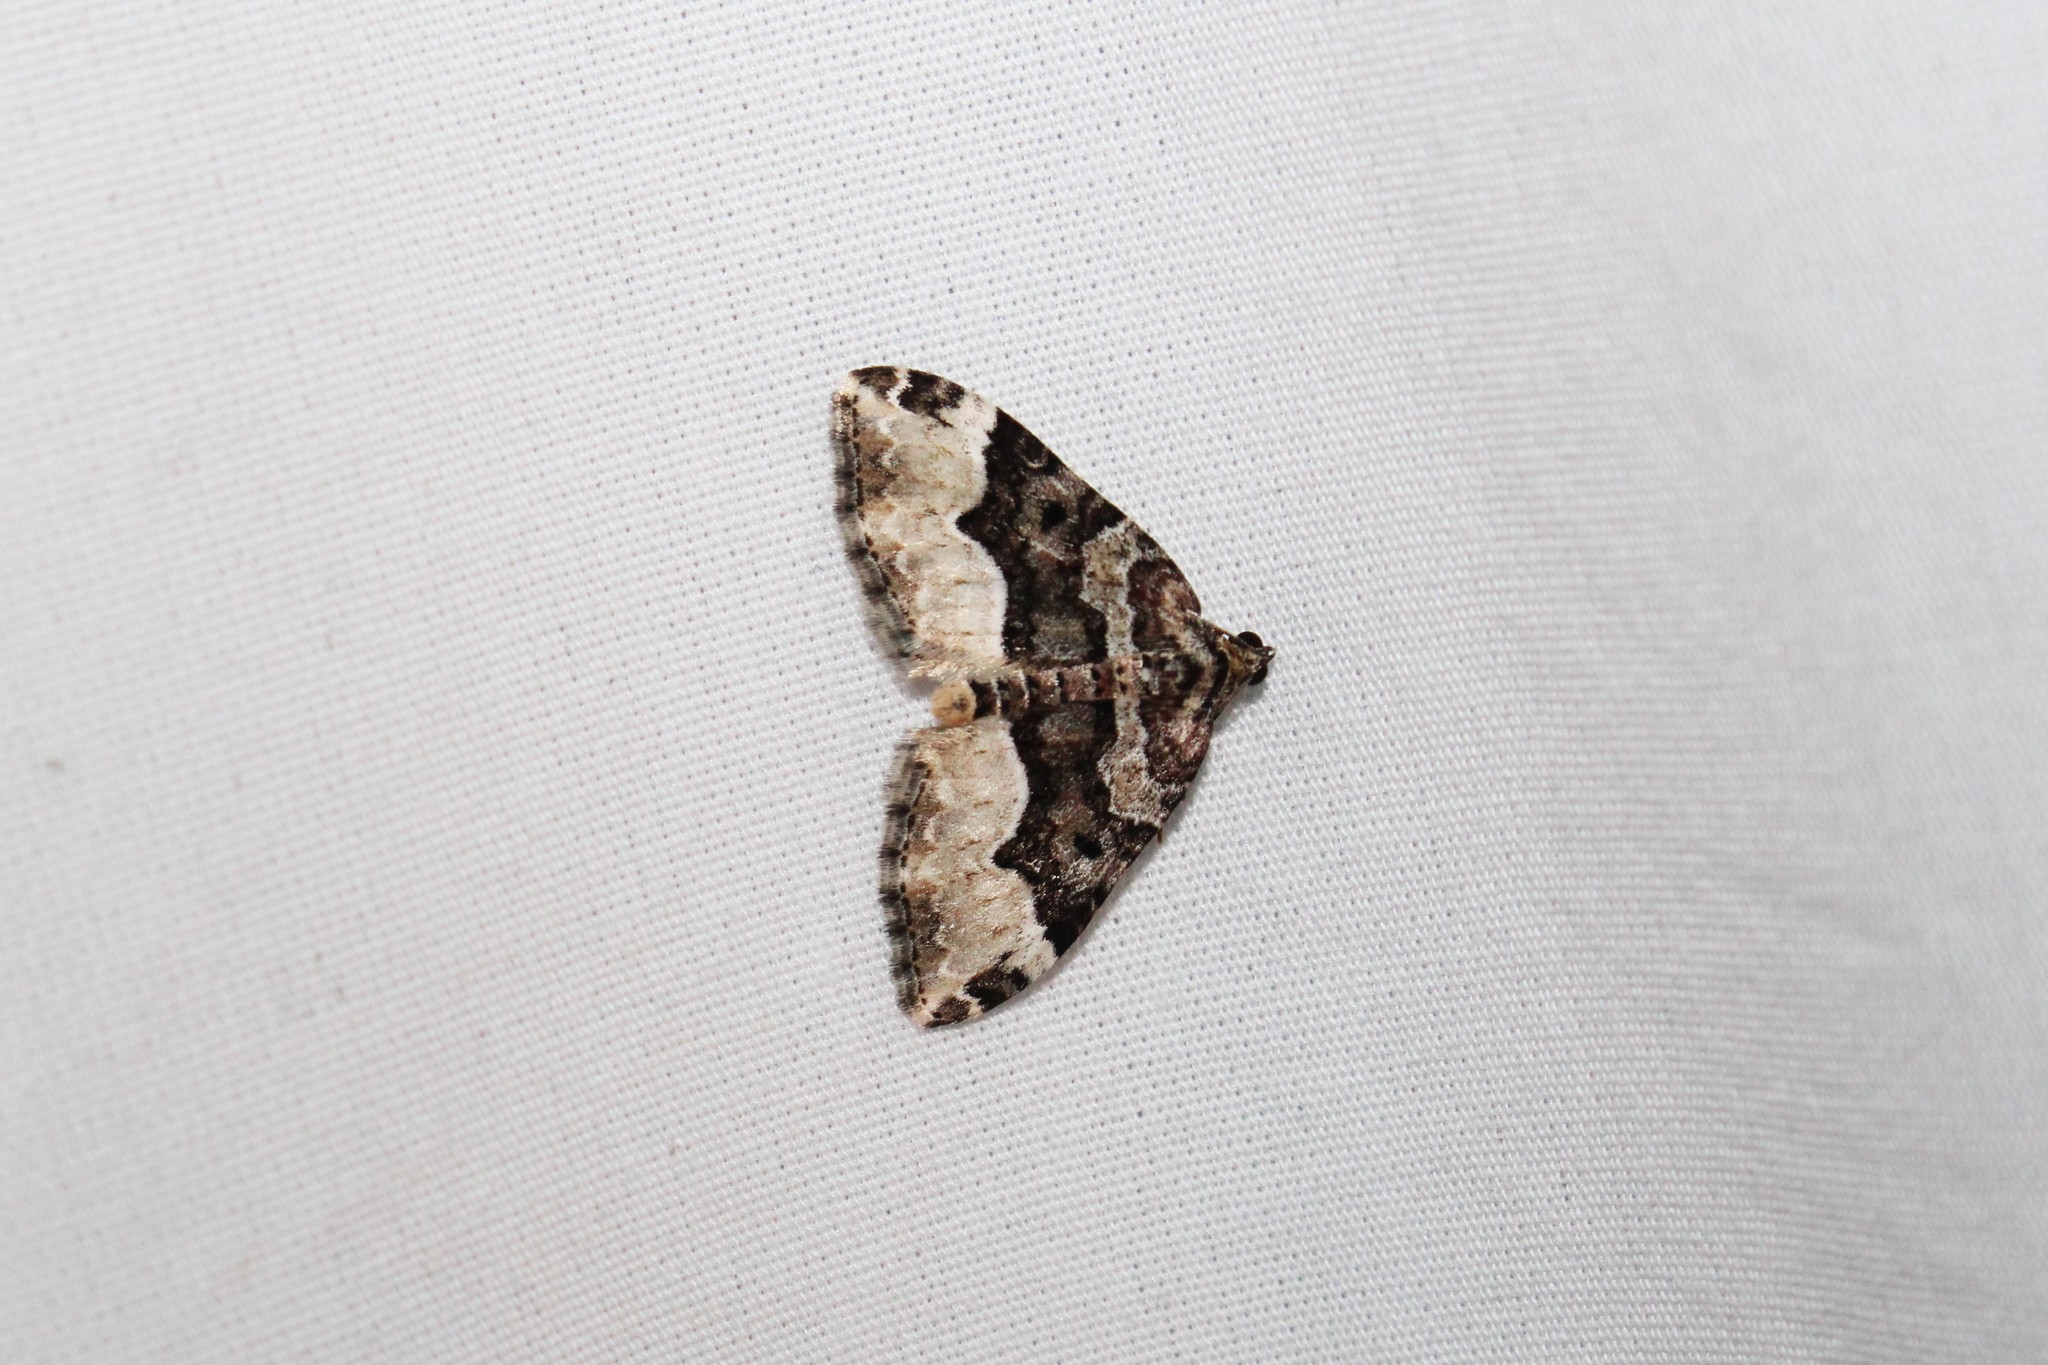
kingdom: Animalia
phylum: Arthropoda
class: Insecta
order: Lepidoptera
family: Geometridae
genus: Euphyia
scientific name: Euphyia intermediata
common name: Sharp-angled carpet
